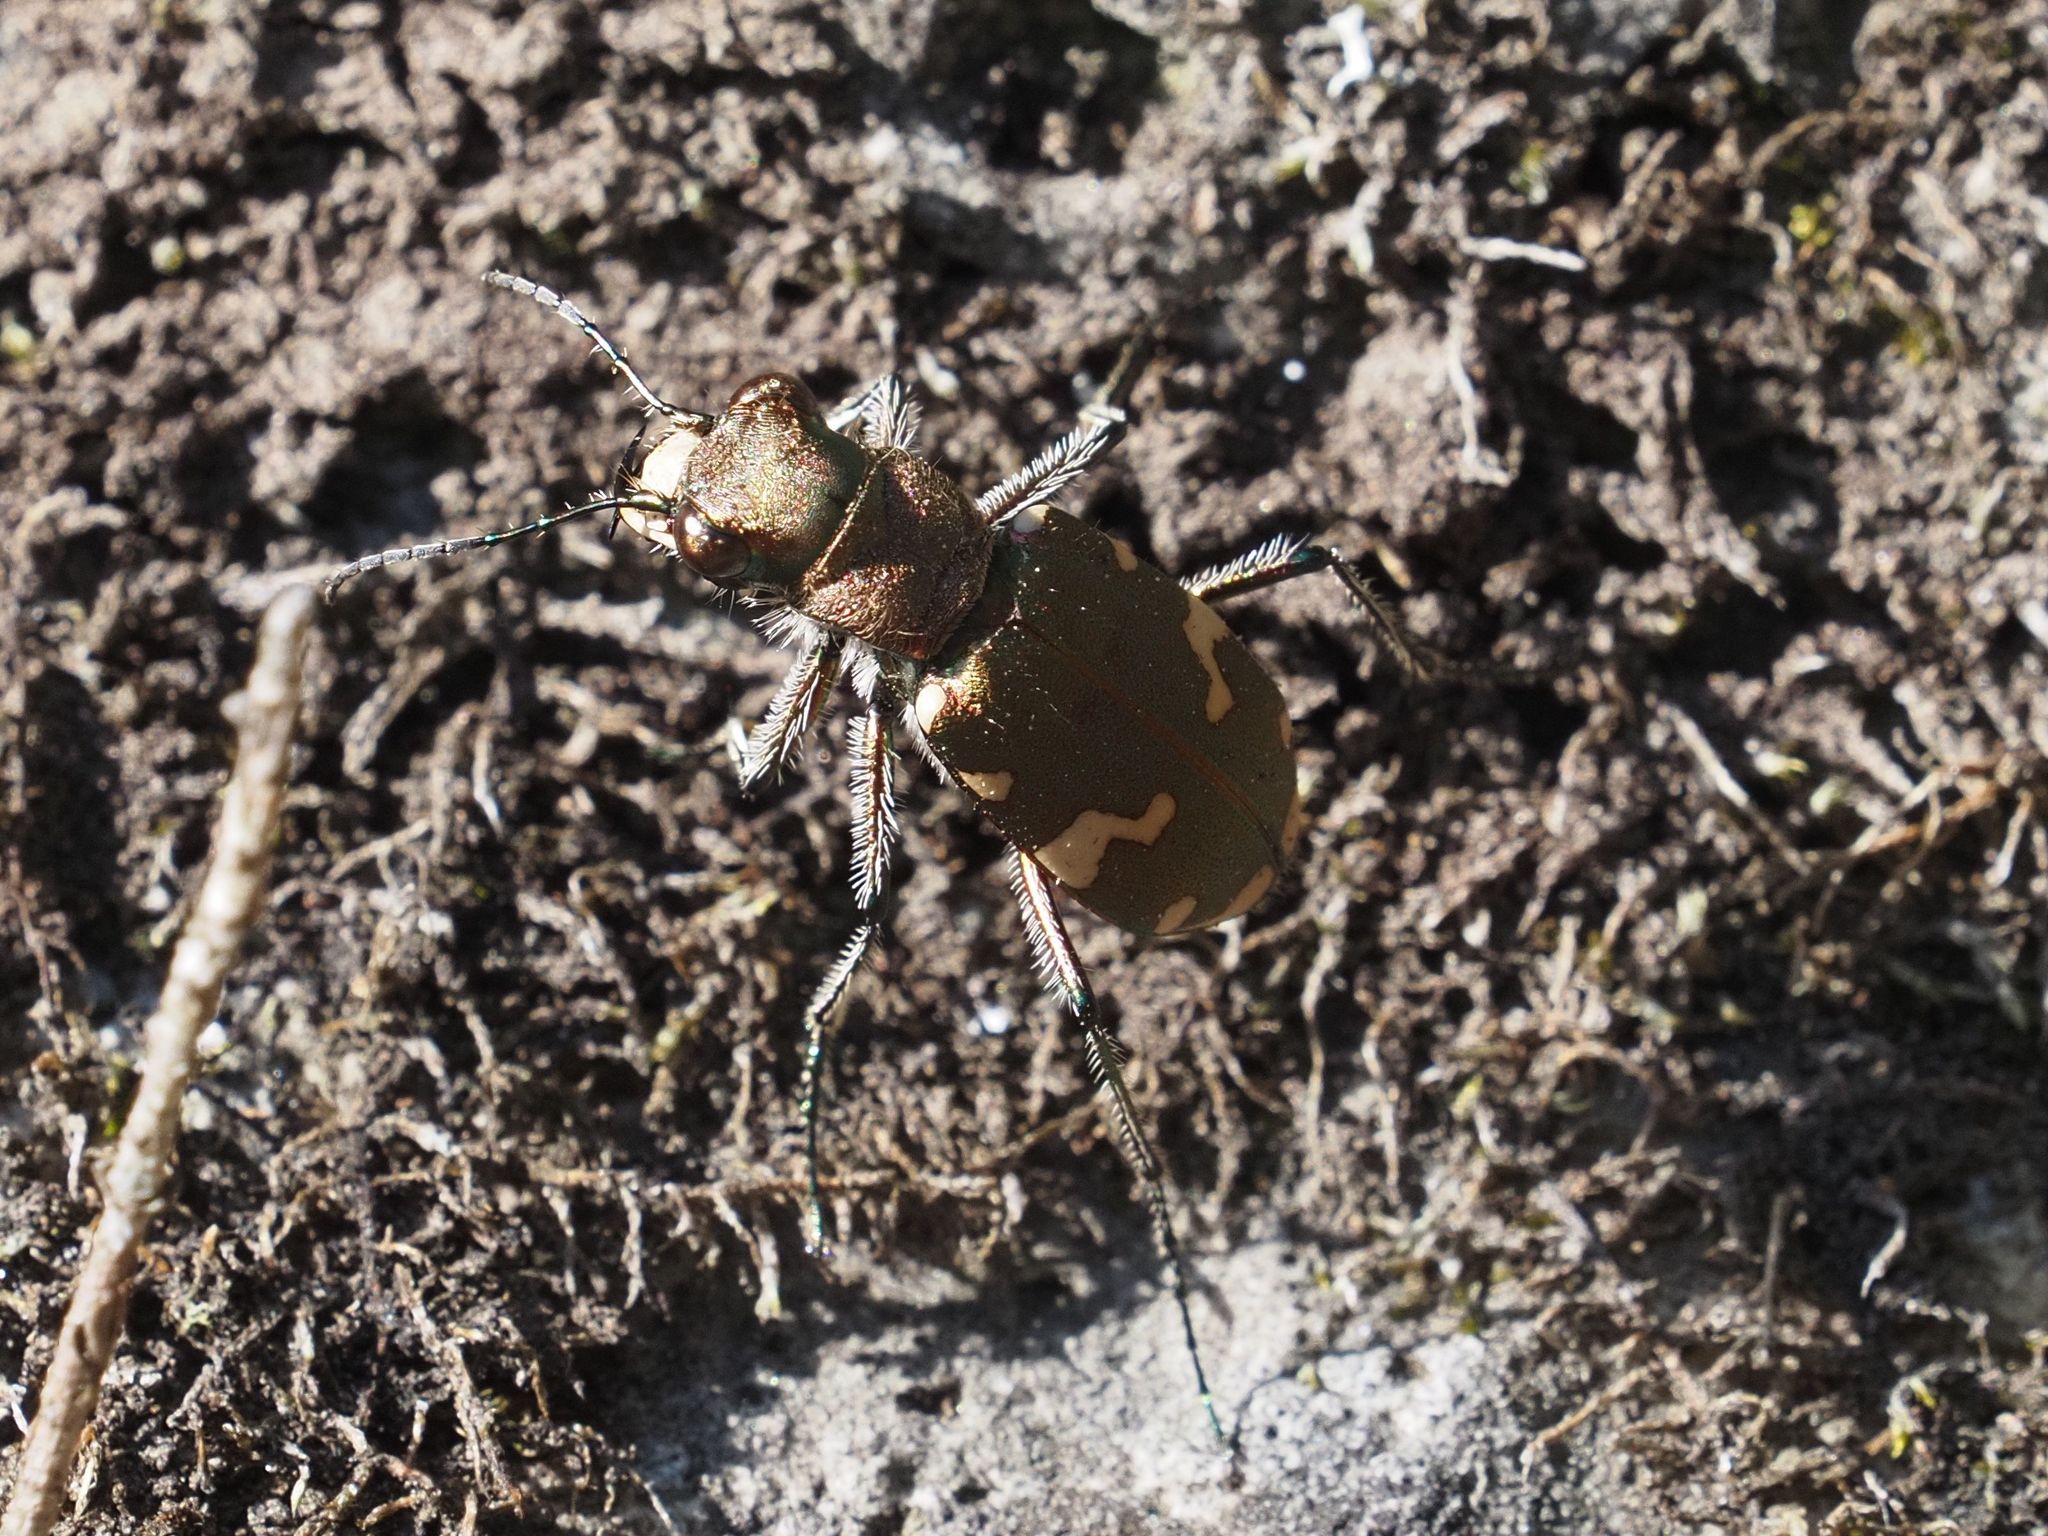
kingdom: Animalia
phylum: Arthropoda
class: Insecta
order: Coleoptera
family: Carabidae
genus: Cicindela
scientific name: Cicindela sylvicola
